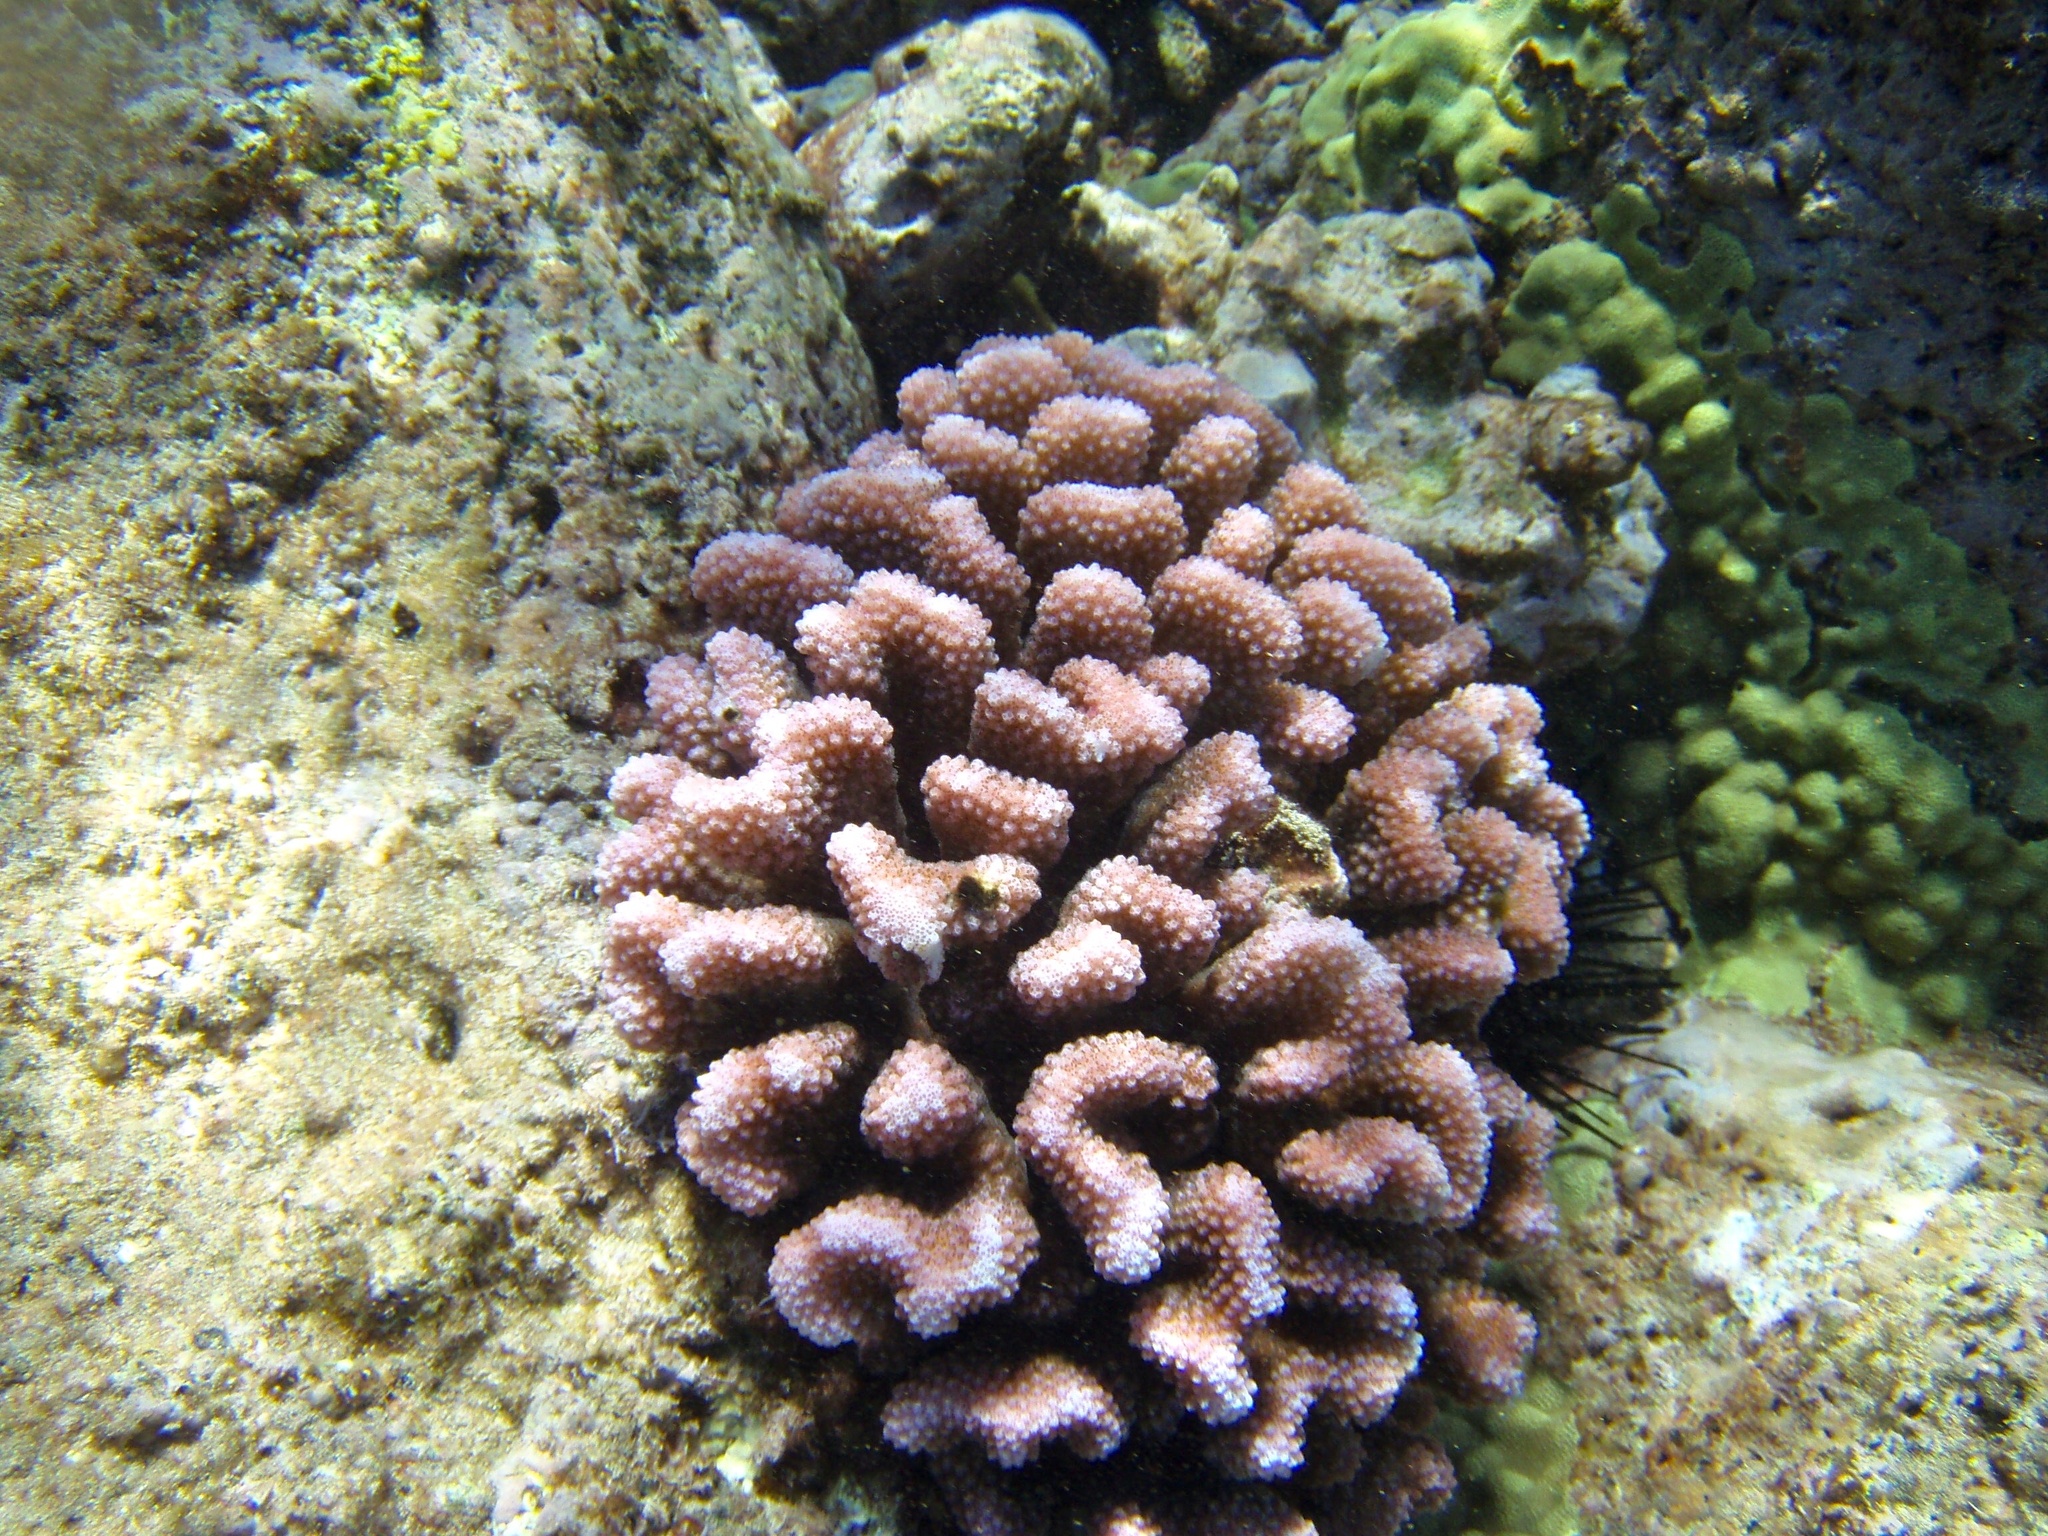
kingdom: Animalia
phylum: Cnidaria
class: Anthozoa
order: Scleractinia
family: Pocilloporidae
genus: Pocillopora
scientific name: Pocillopora meandrina
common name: Cauliflower coral
